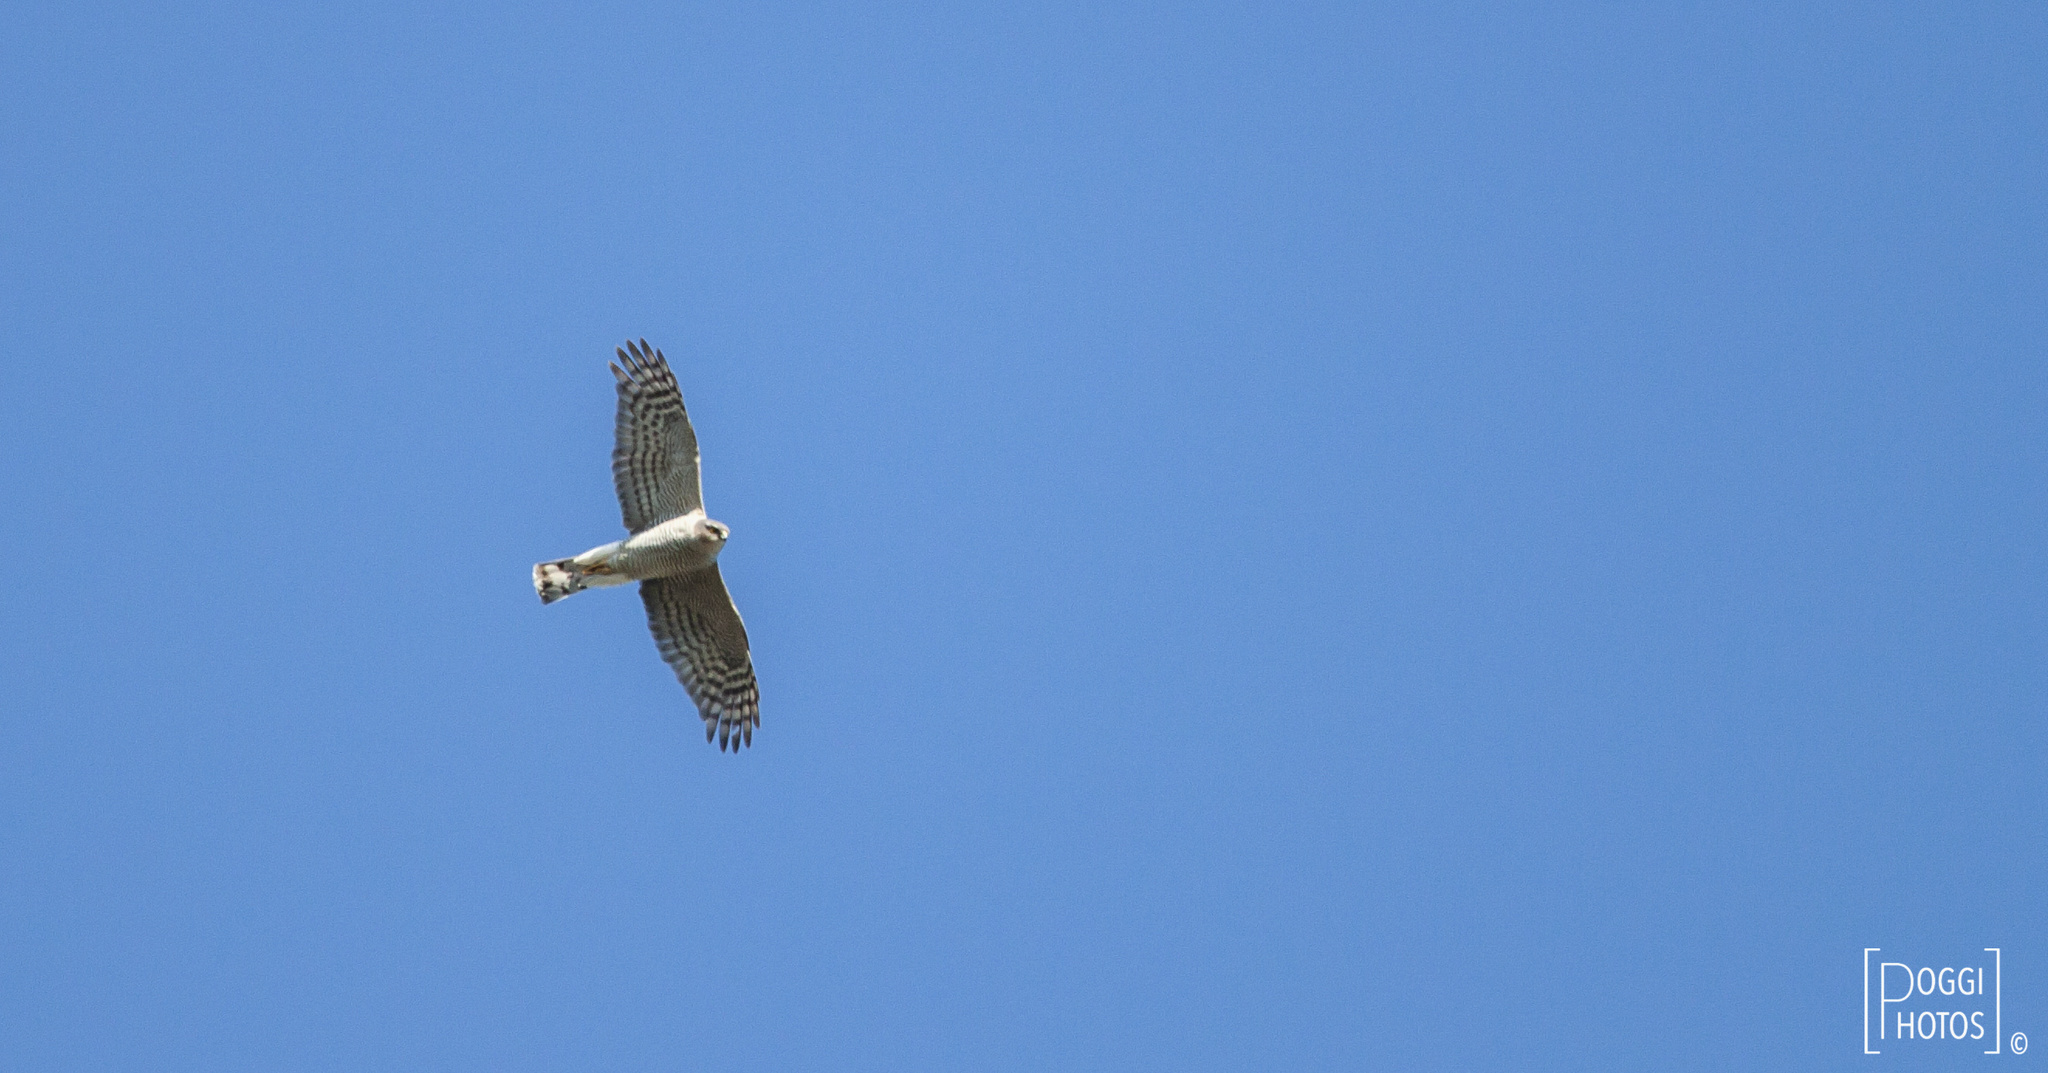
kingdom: Animalia
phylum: Chordata
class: Aves
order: Accipitriformes
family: Accipitridae
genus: Accipiter
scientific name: Accipiter nisus
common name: Eurasian sparrowhawk
